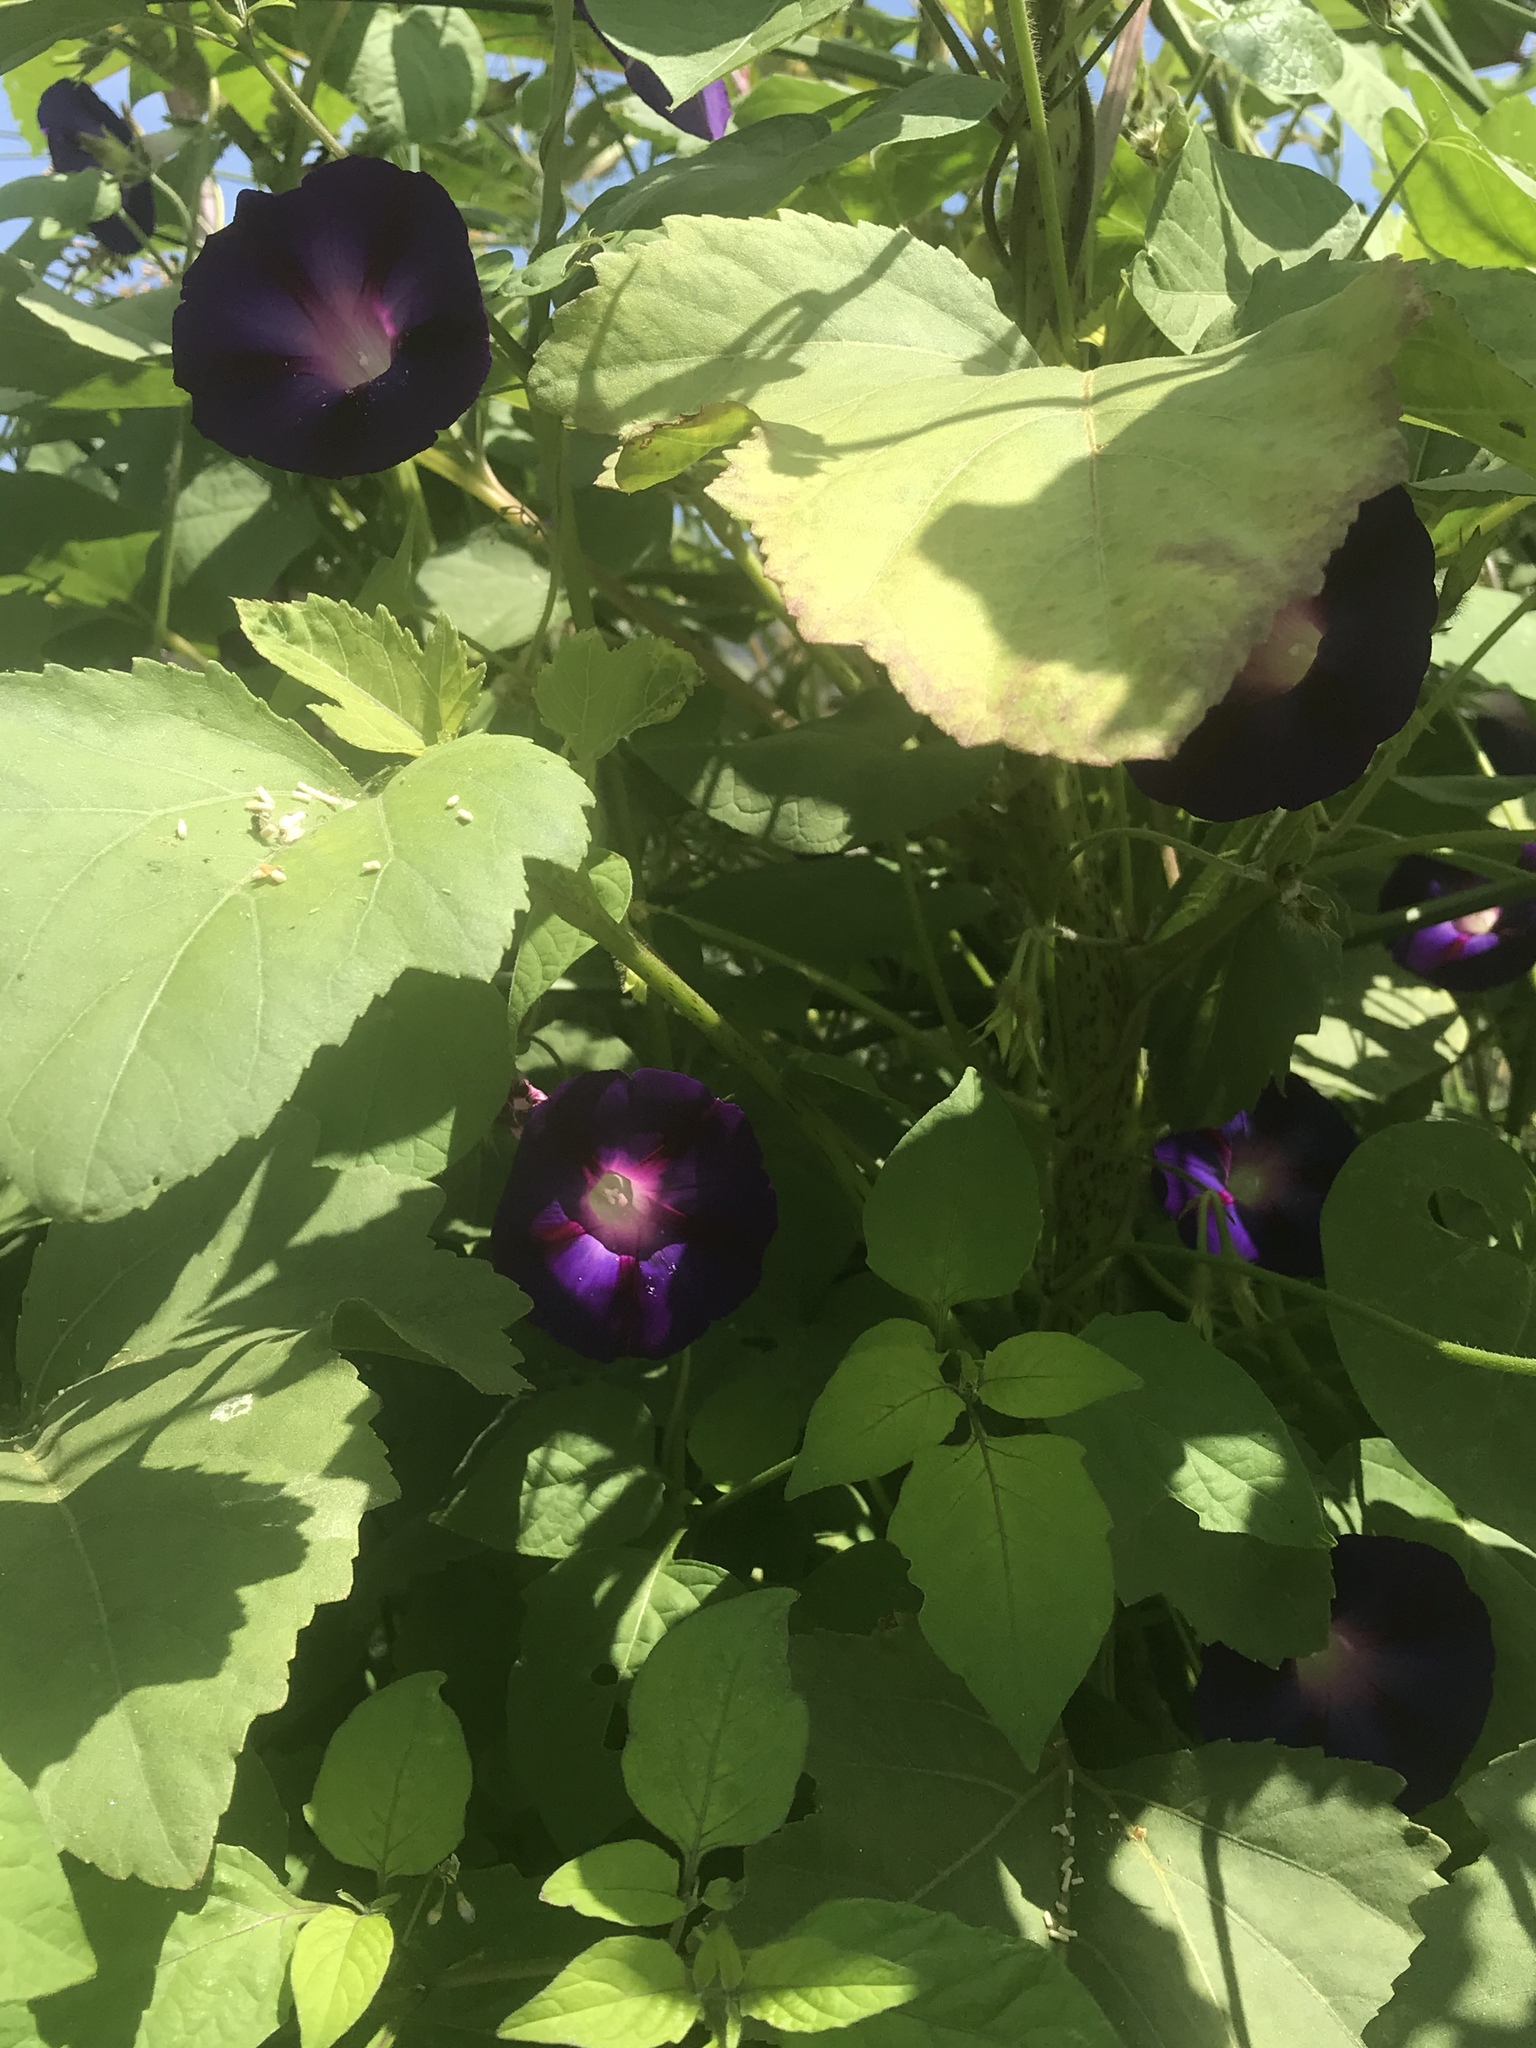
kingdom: Plantae
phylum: Tracheophyta
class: Magnoliopsida
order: Solanales
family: Convolvulaceae
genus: Ipomoea
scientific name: Ipomoea purpurea
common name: Common morning-glory
